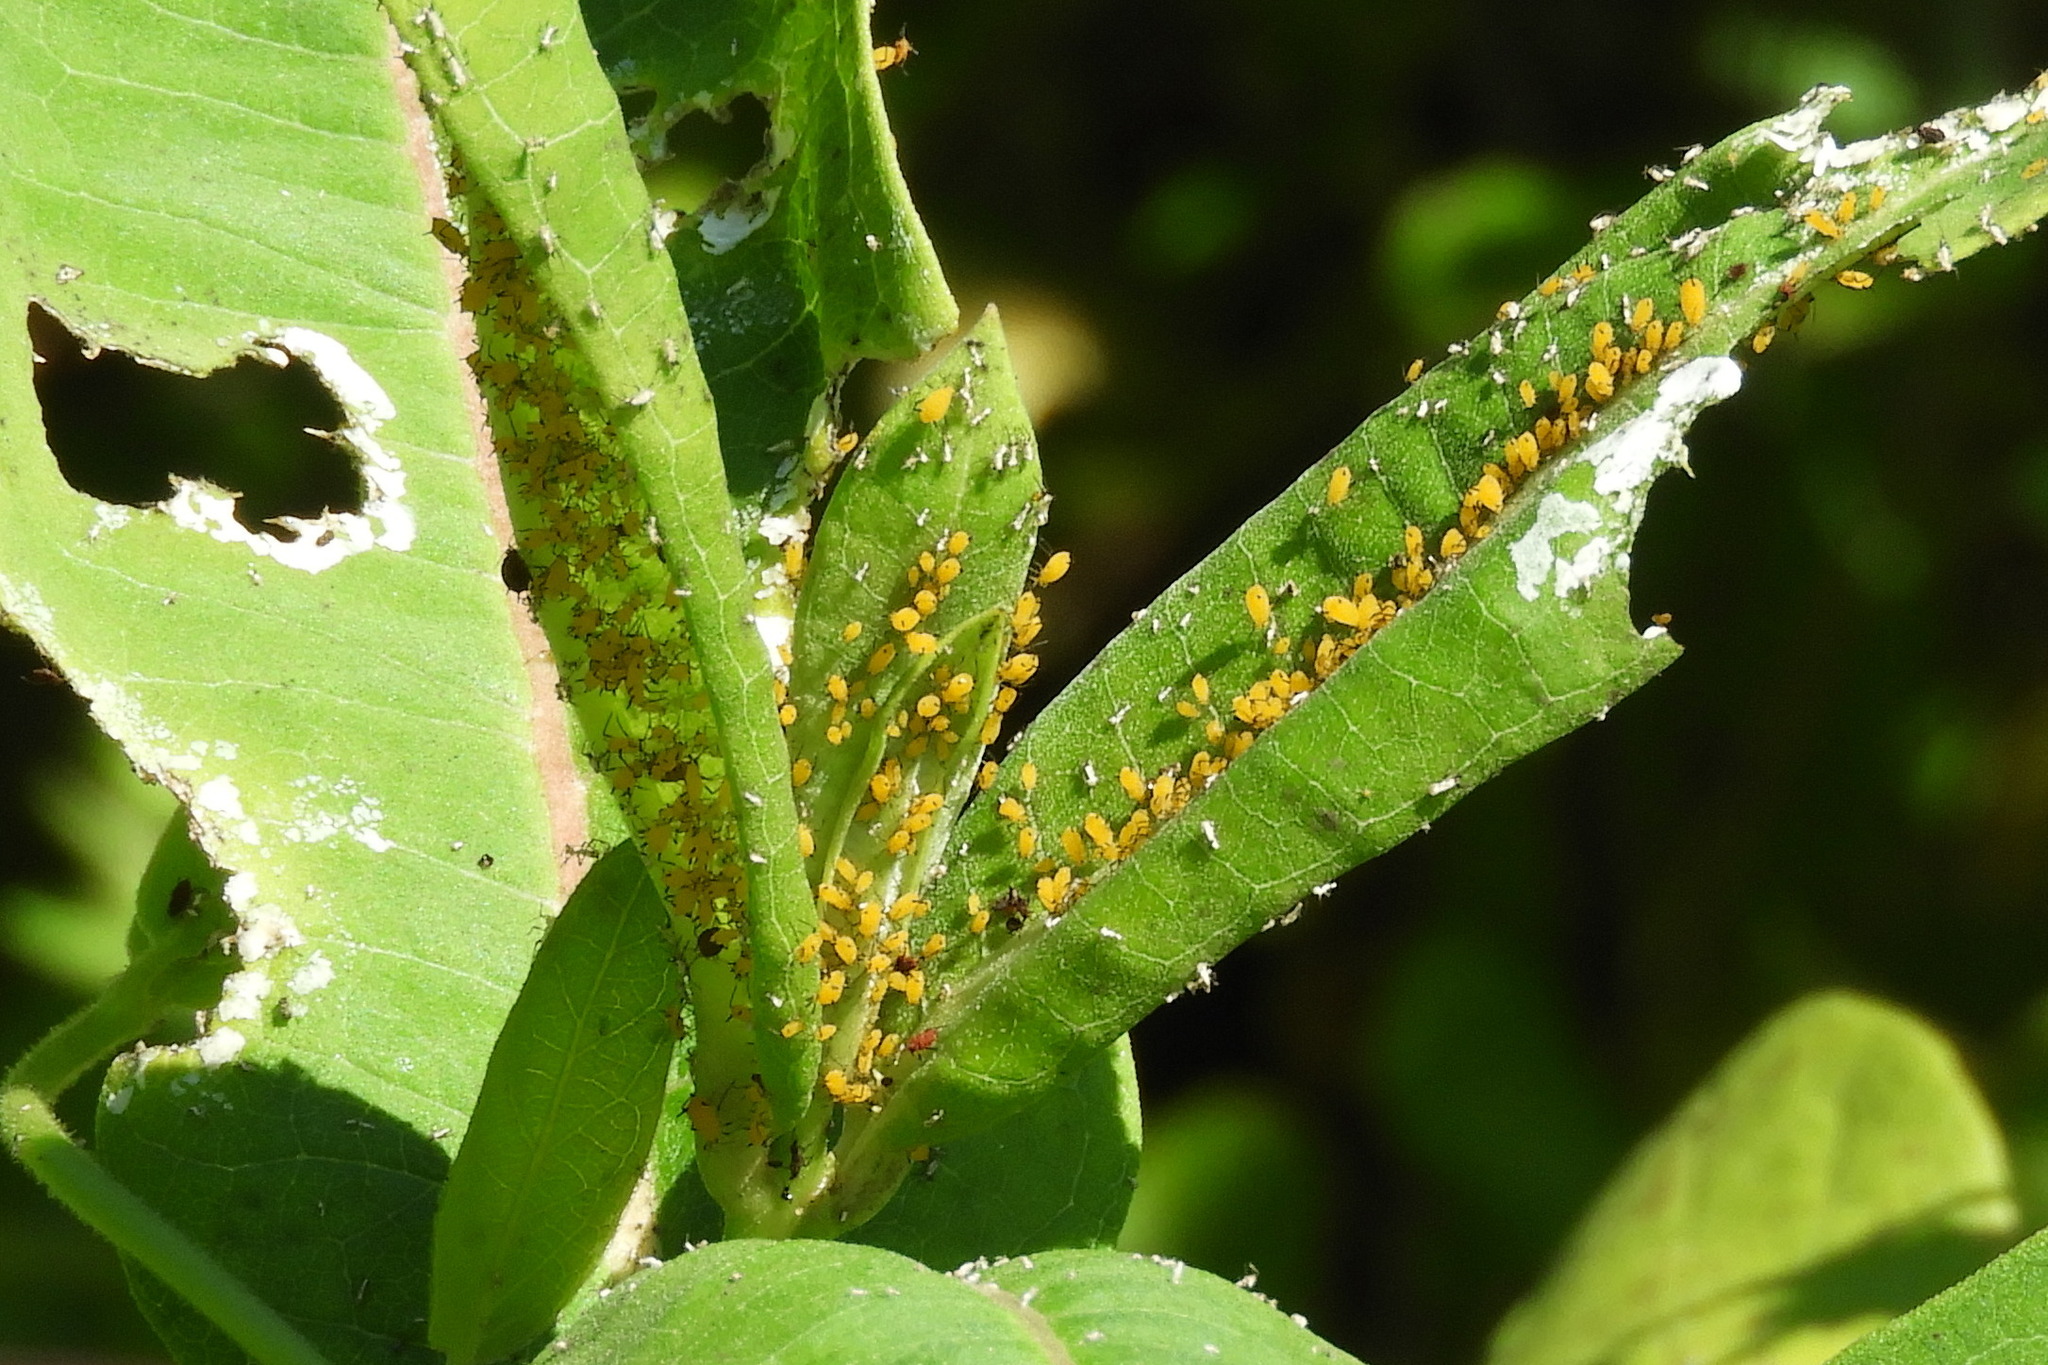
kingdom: Animalia
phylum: Arthropoda
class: Insecta
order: Hemiptera
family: Aphididae
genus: Aphis
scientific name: Aphis nerii
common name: Oleander aphid
